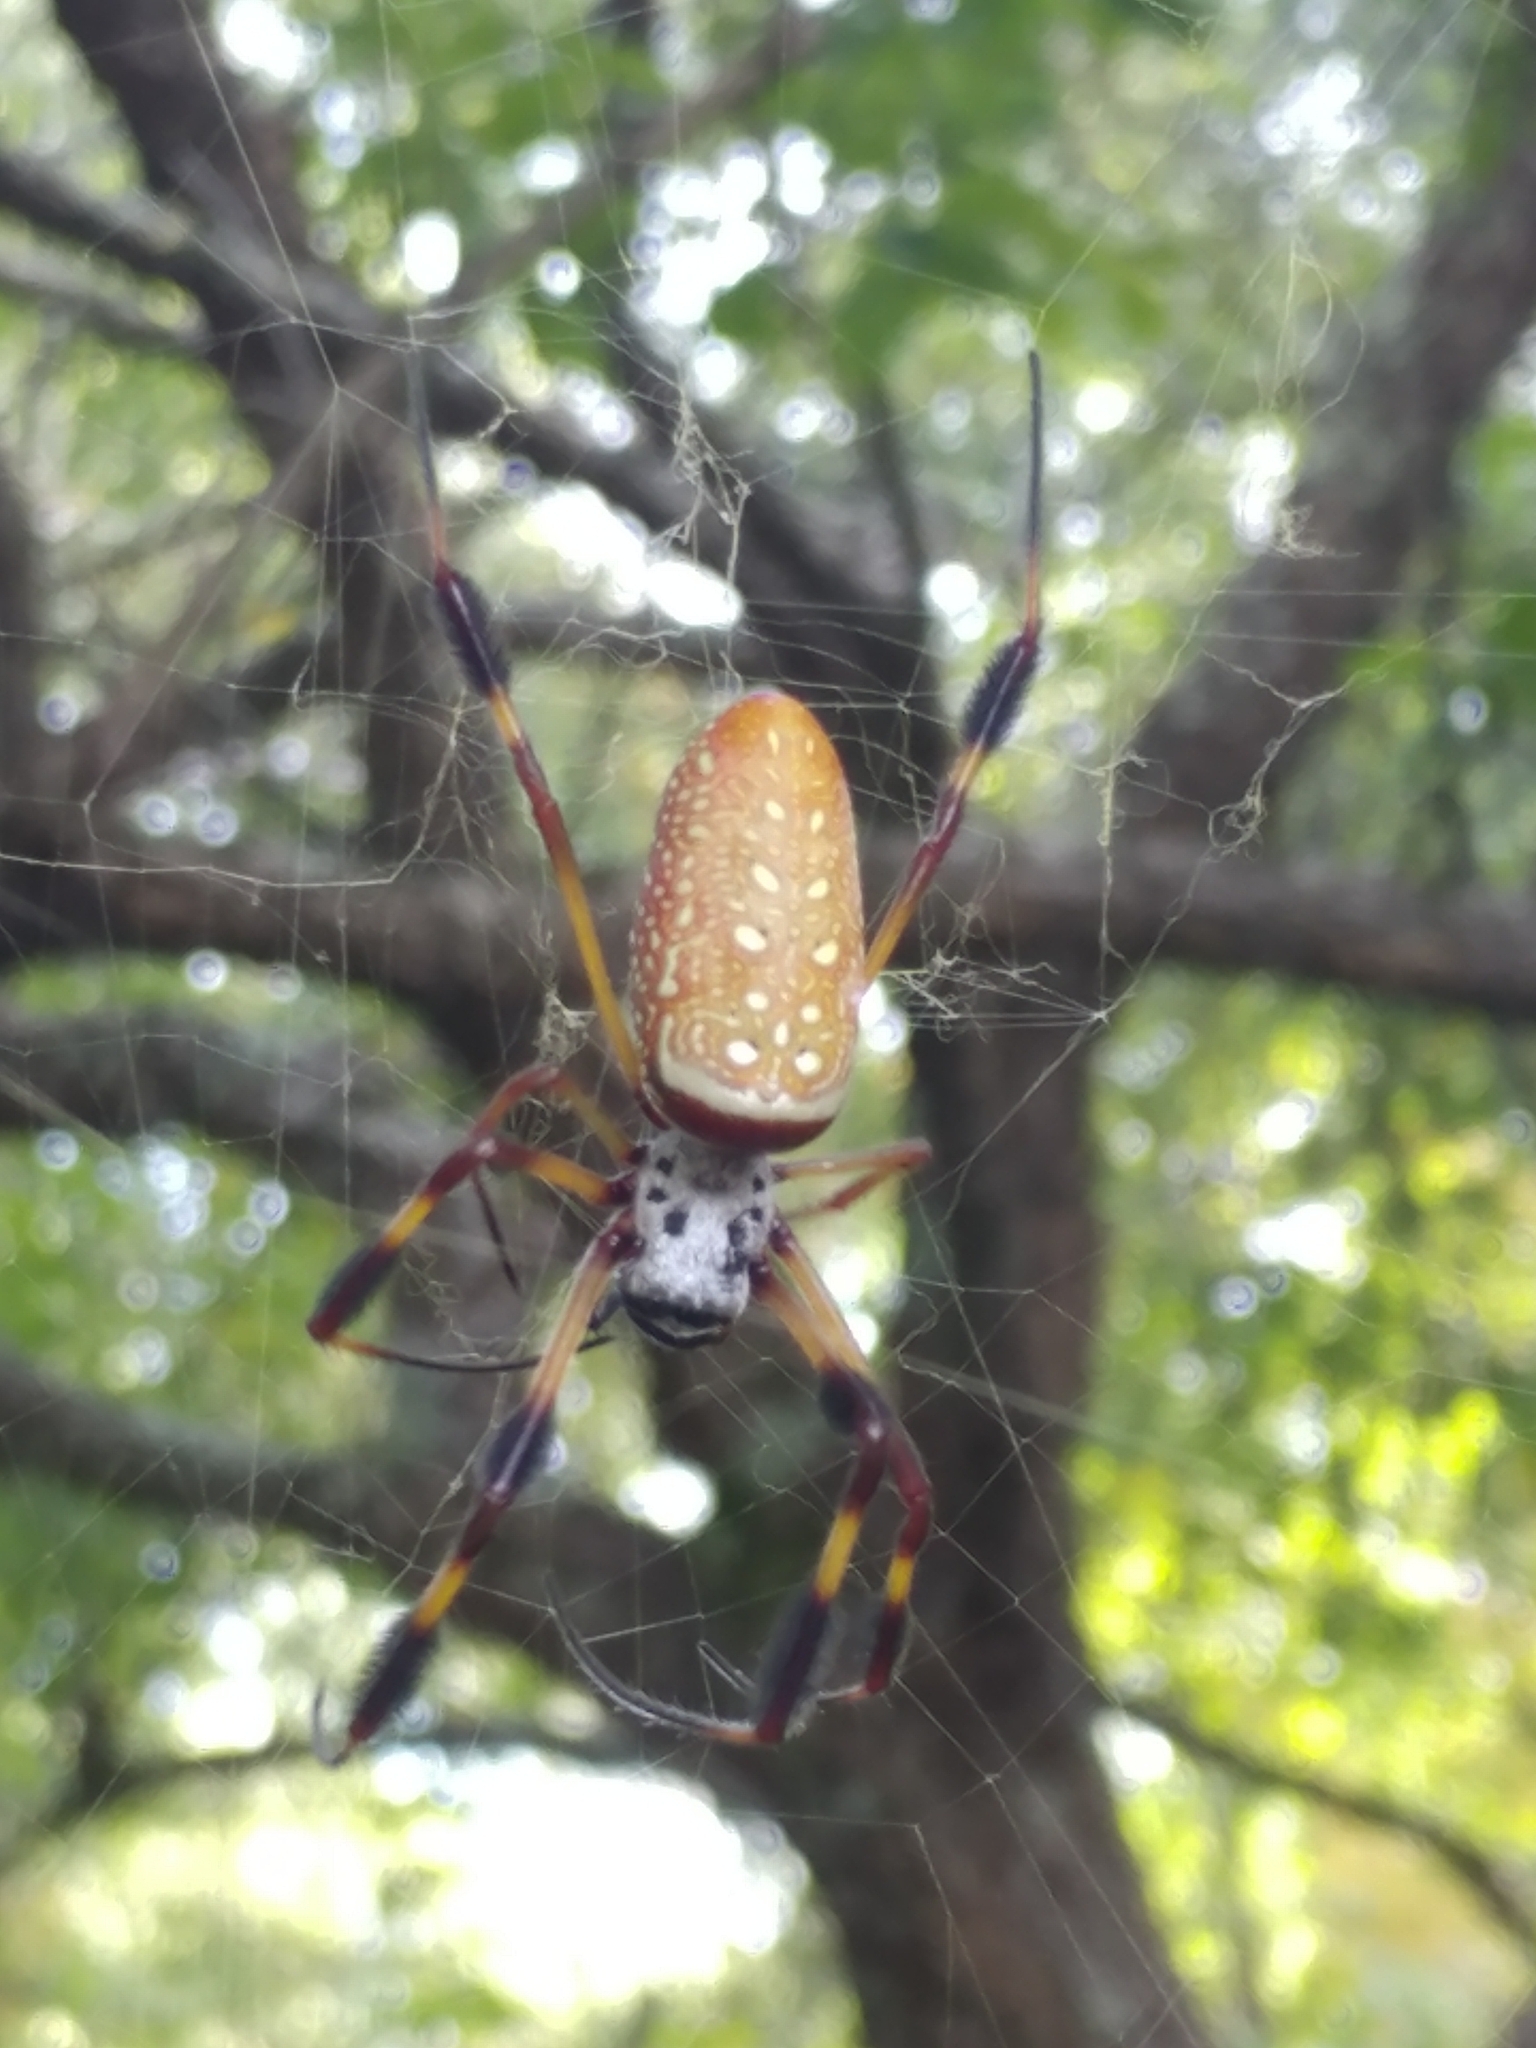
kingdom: Animalia
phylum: Arthropoda
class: Arachnida
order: Araneae
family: Araneidae
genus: Trichonephila
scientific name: Trichonephila clavipes
